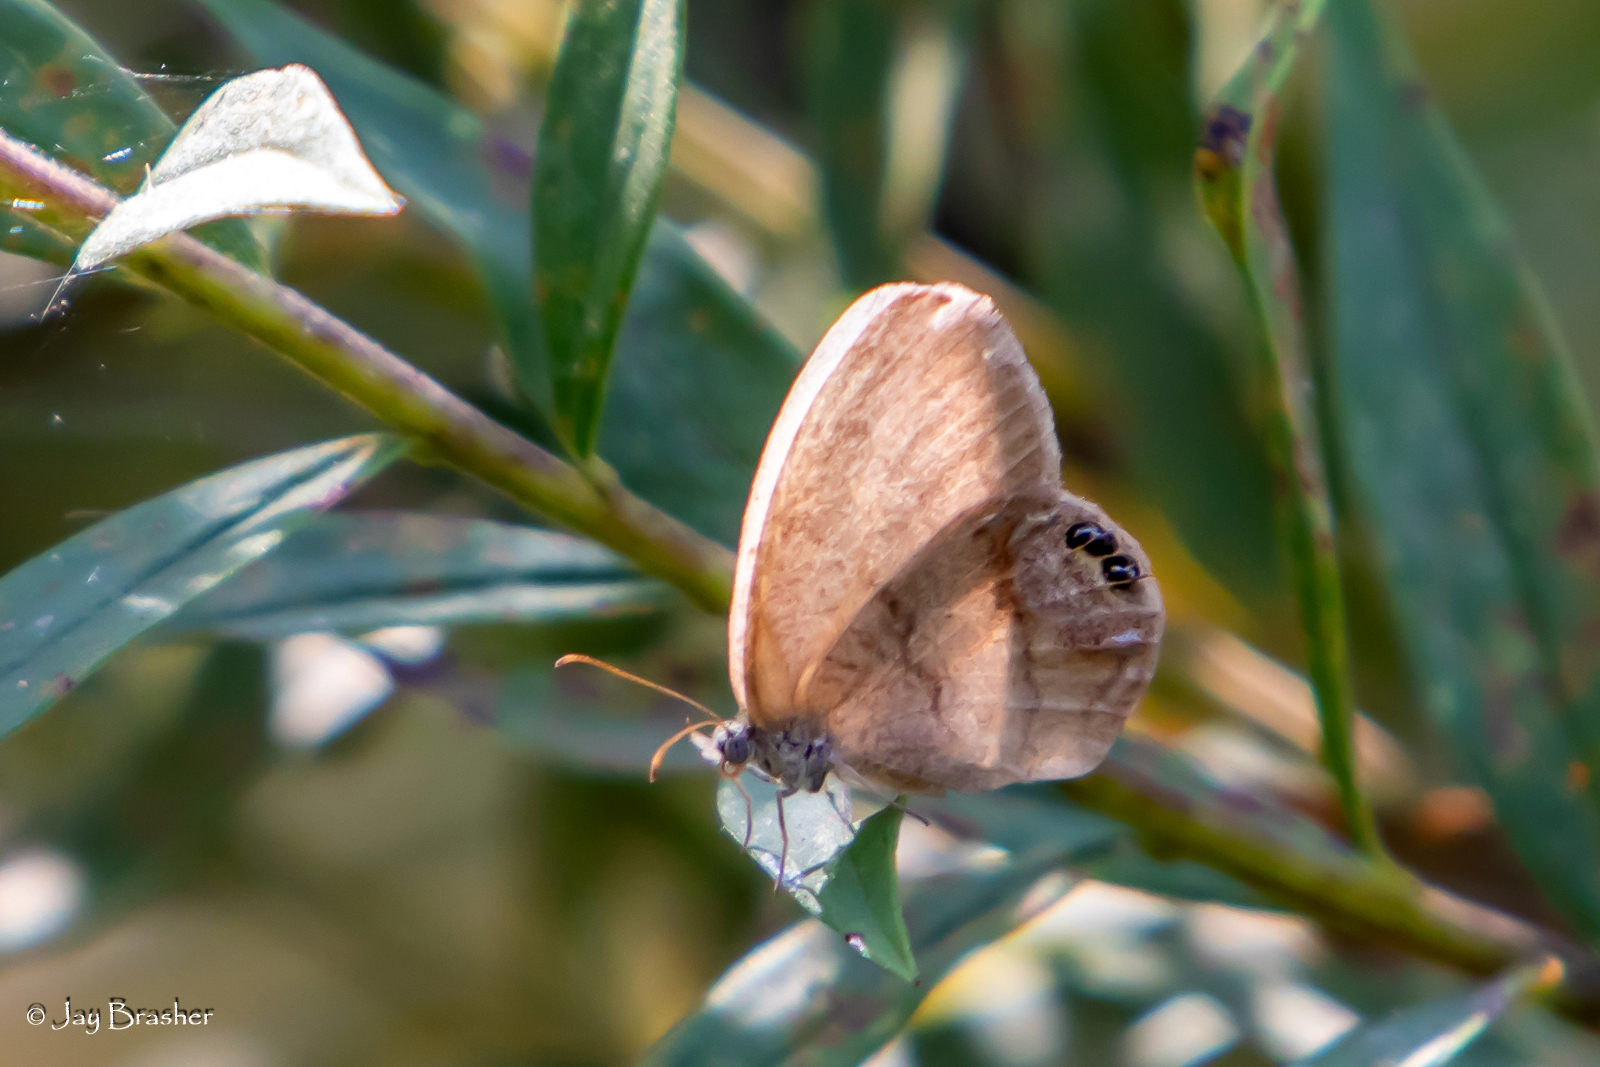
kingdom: Animalia
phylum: Arthropoda
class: Insecta
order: Lepidoptera
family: Nymphalidae
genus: Euptychia
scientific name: Euptychia cornelius
